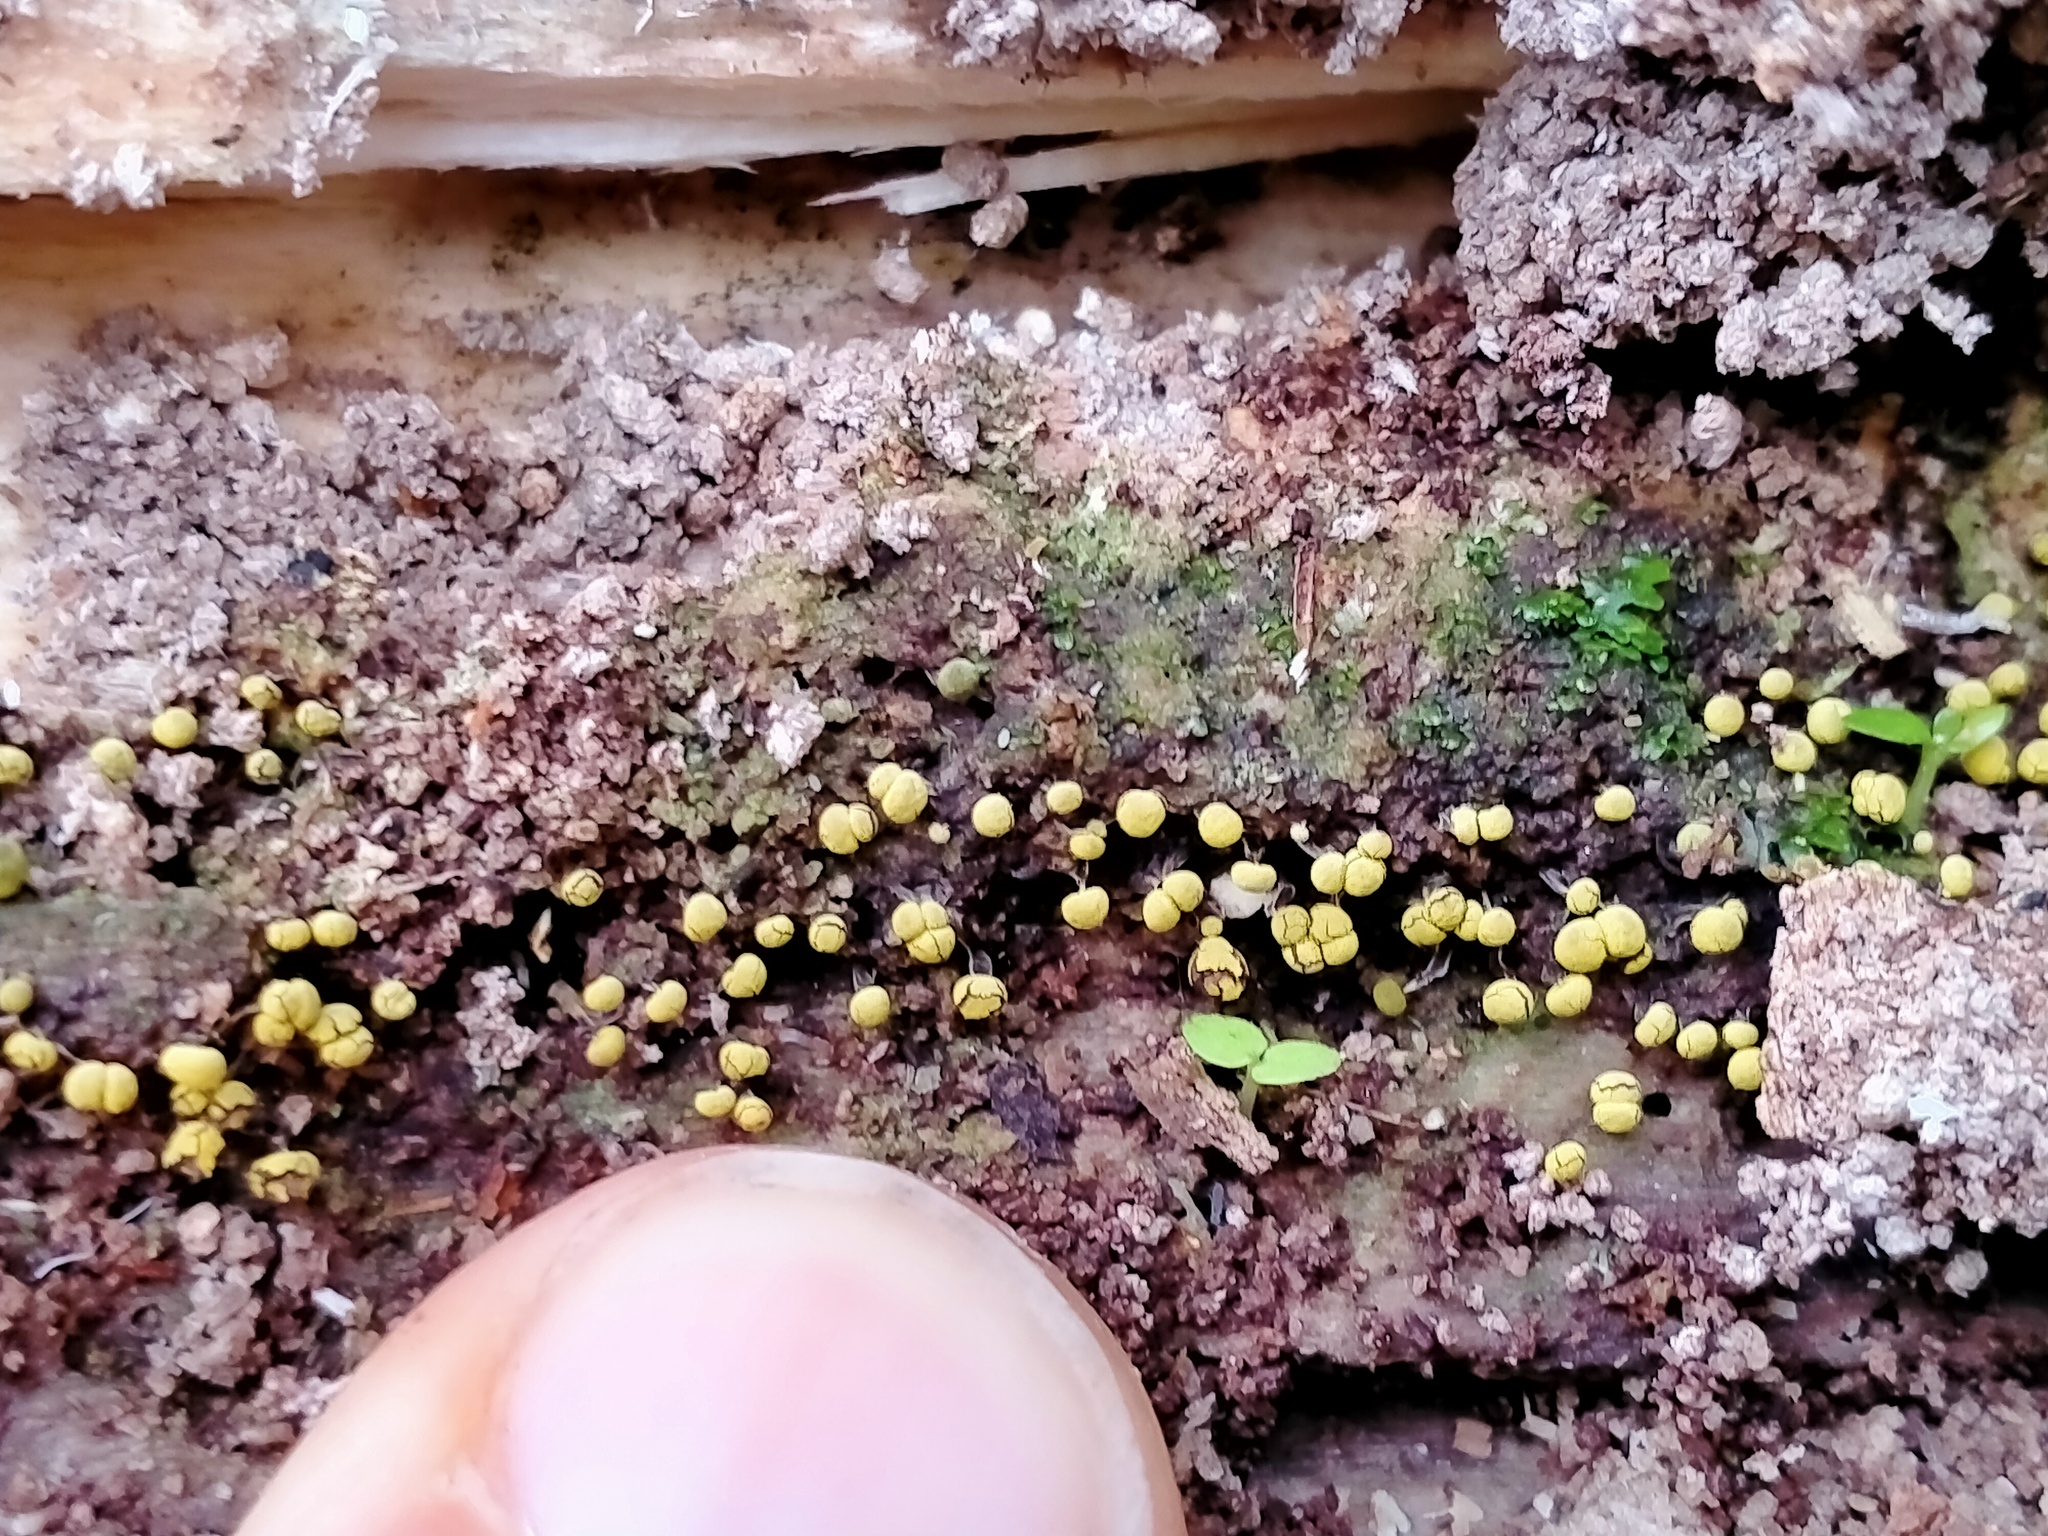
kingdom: Protozoa
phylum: Mycetozoa
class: Myxomycetes
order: Physarales
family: Physaraceae
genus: Physarum
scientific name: Physarum viride
